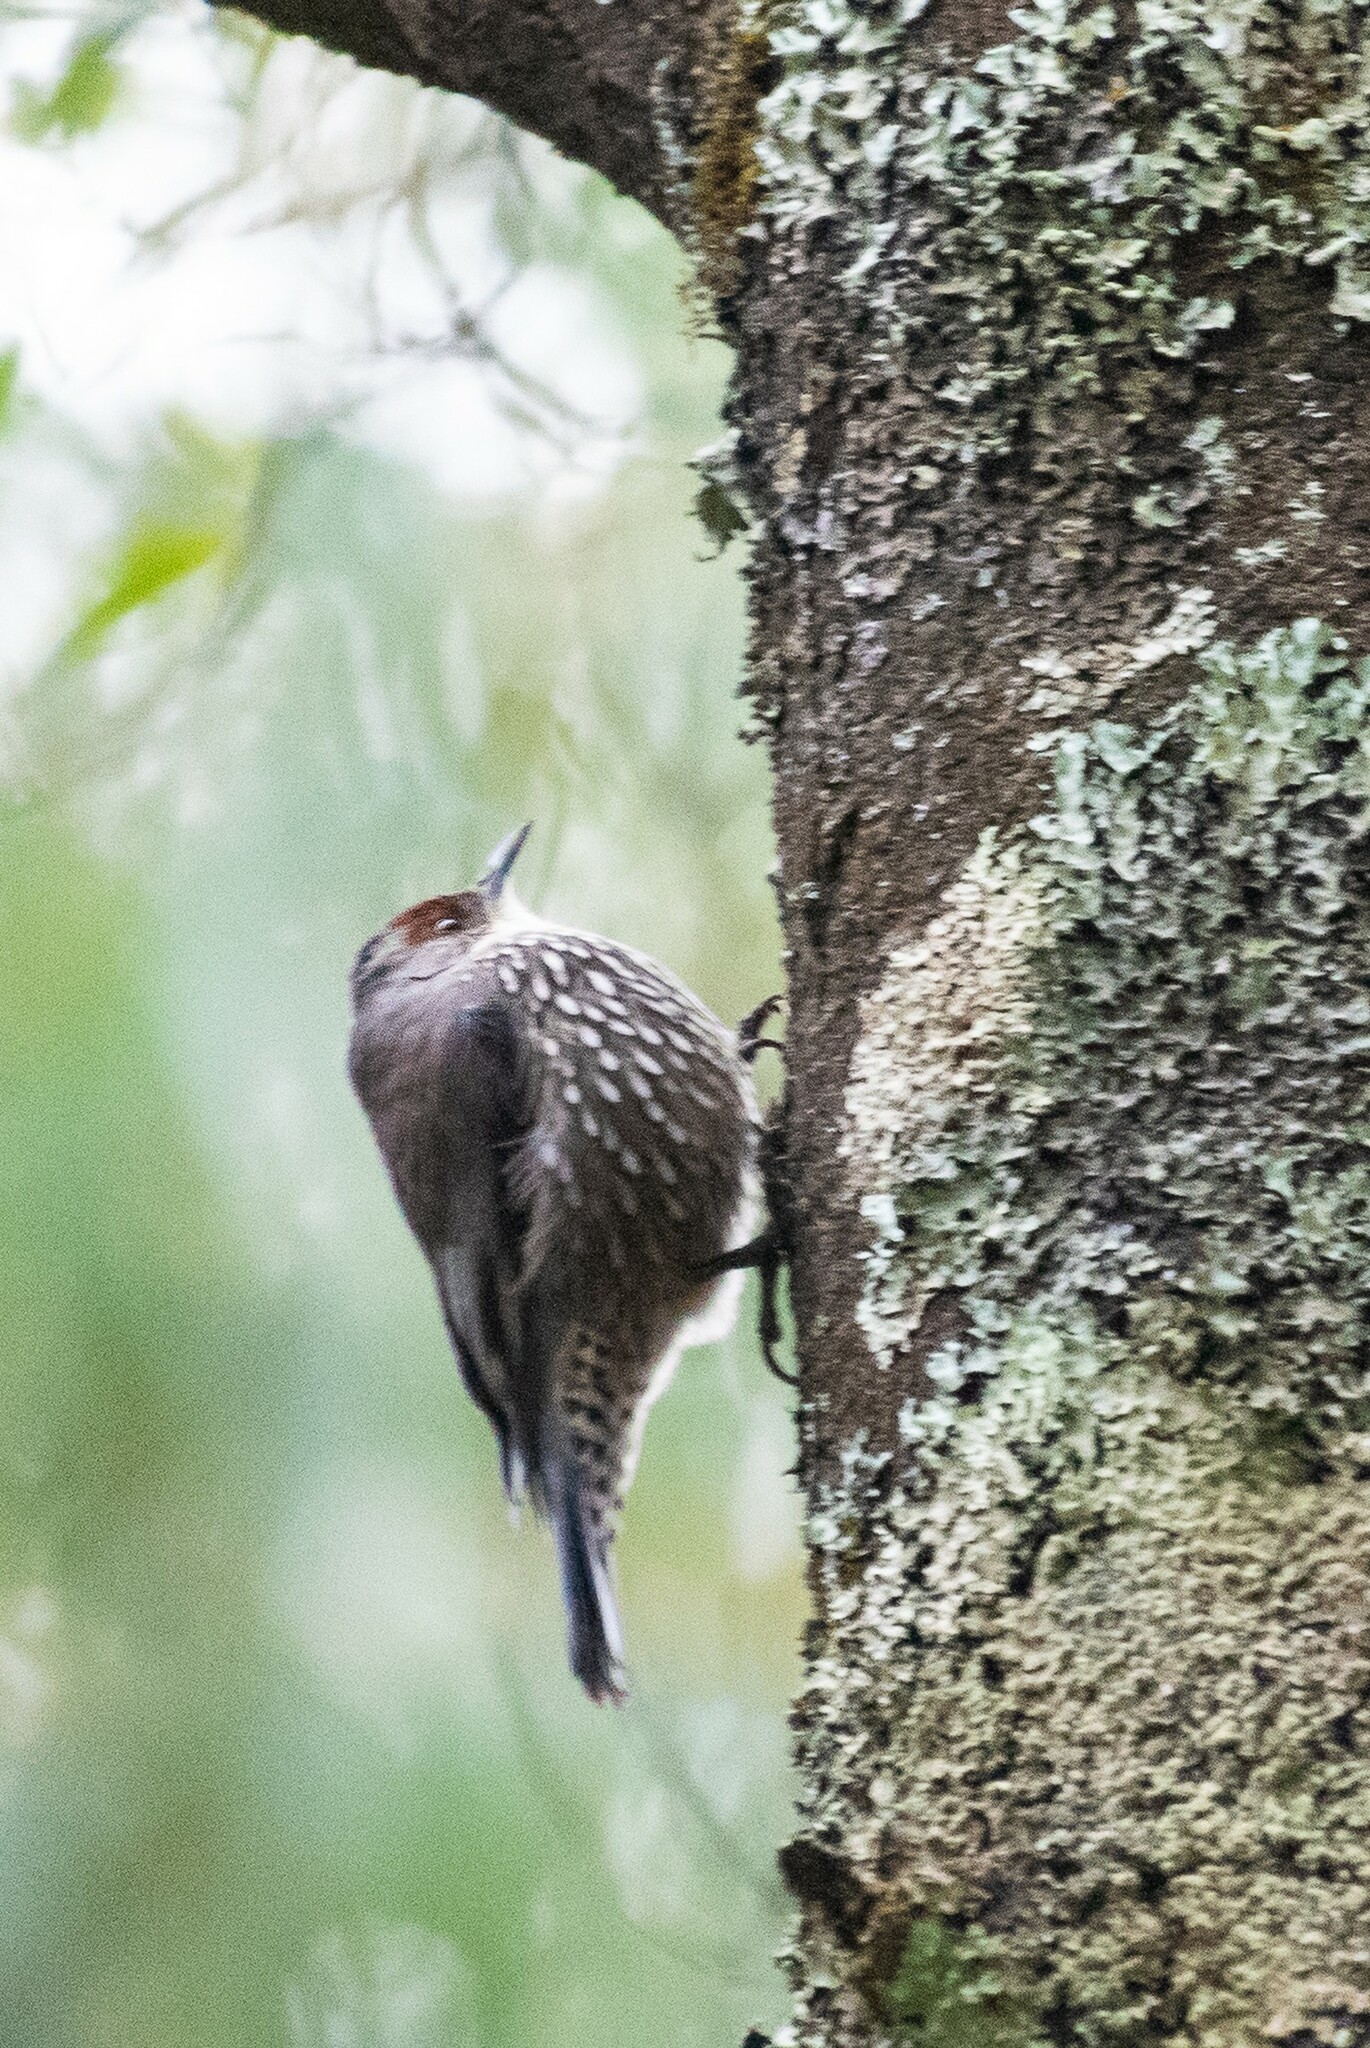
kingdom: Animalia
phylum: Chordata
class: Aves
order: Passeriformes
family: Climacteridae
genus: Climacteris
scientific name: Climacteris erythrops
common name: Red-browed treecreeper
